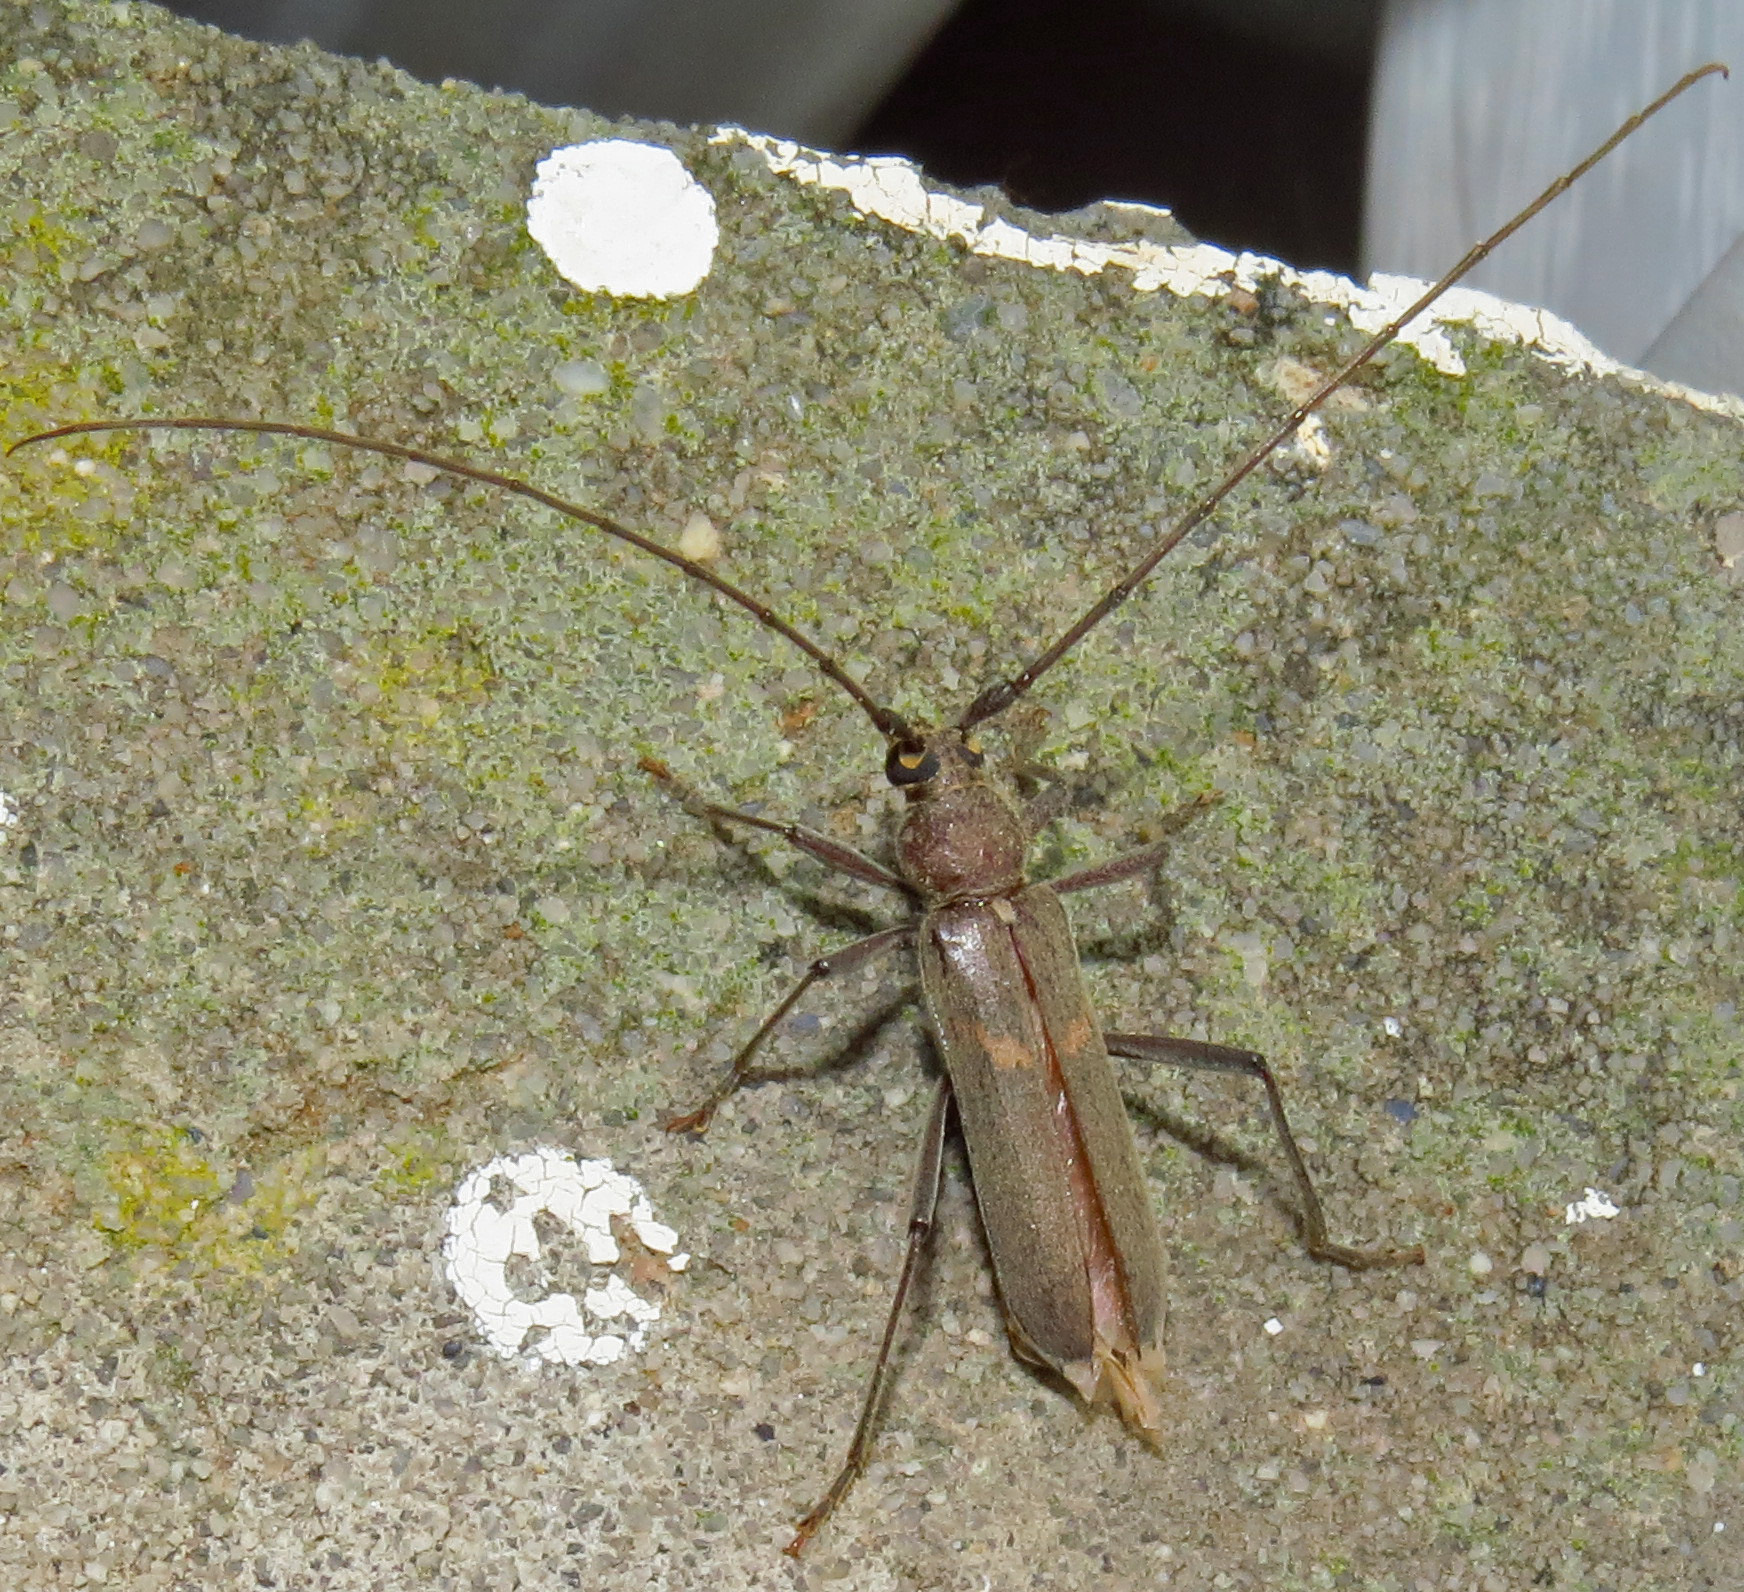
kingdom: Animalia
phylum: Arthropoda
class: Insecta
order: Coleoptera
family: Cerambycidae
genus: Knulliana
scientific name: Knulliana cincta
